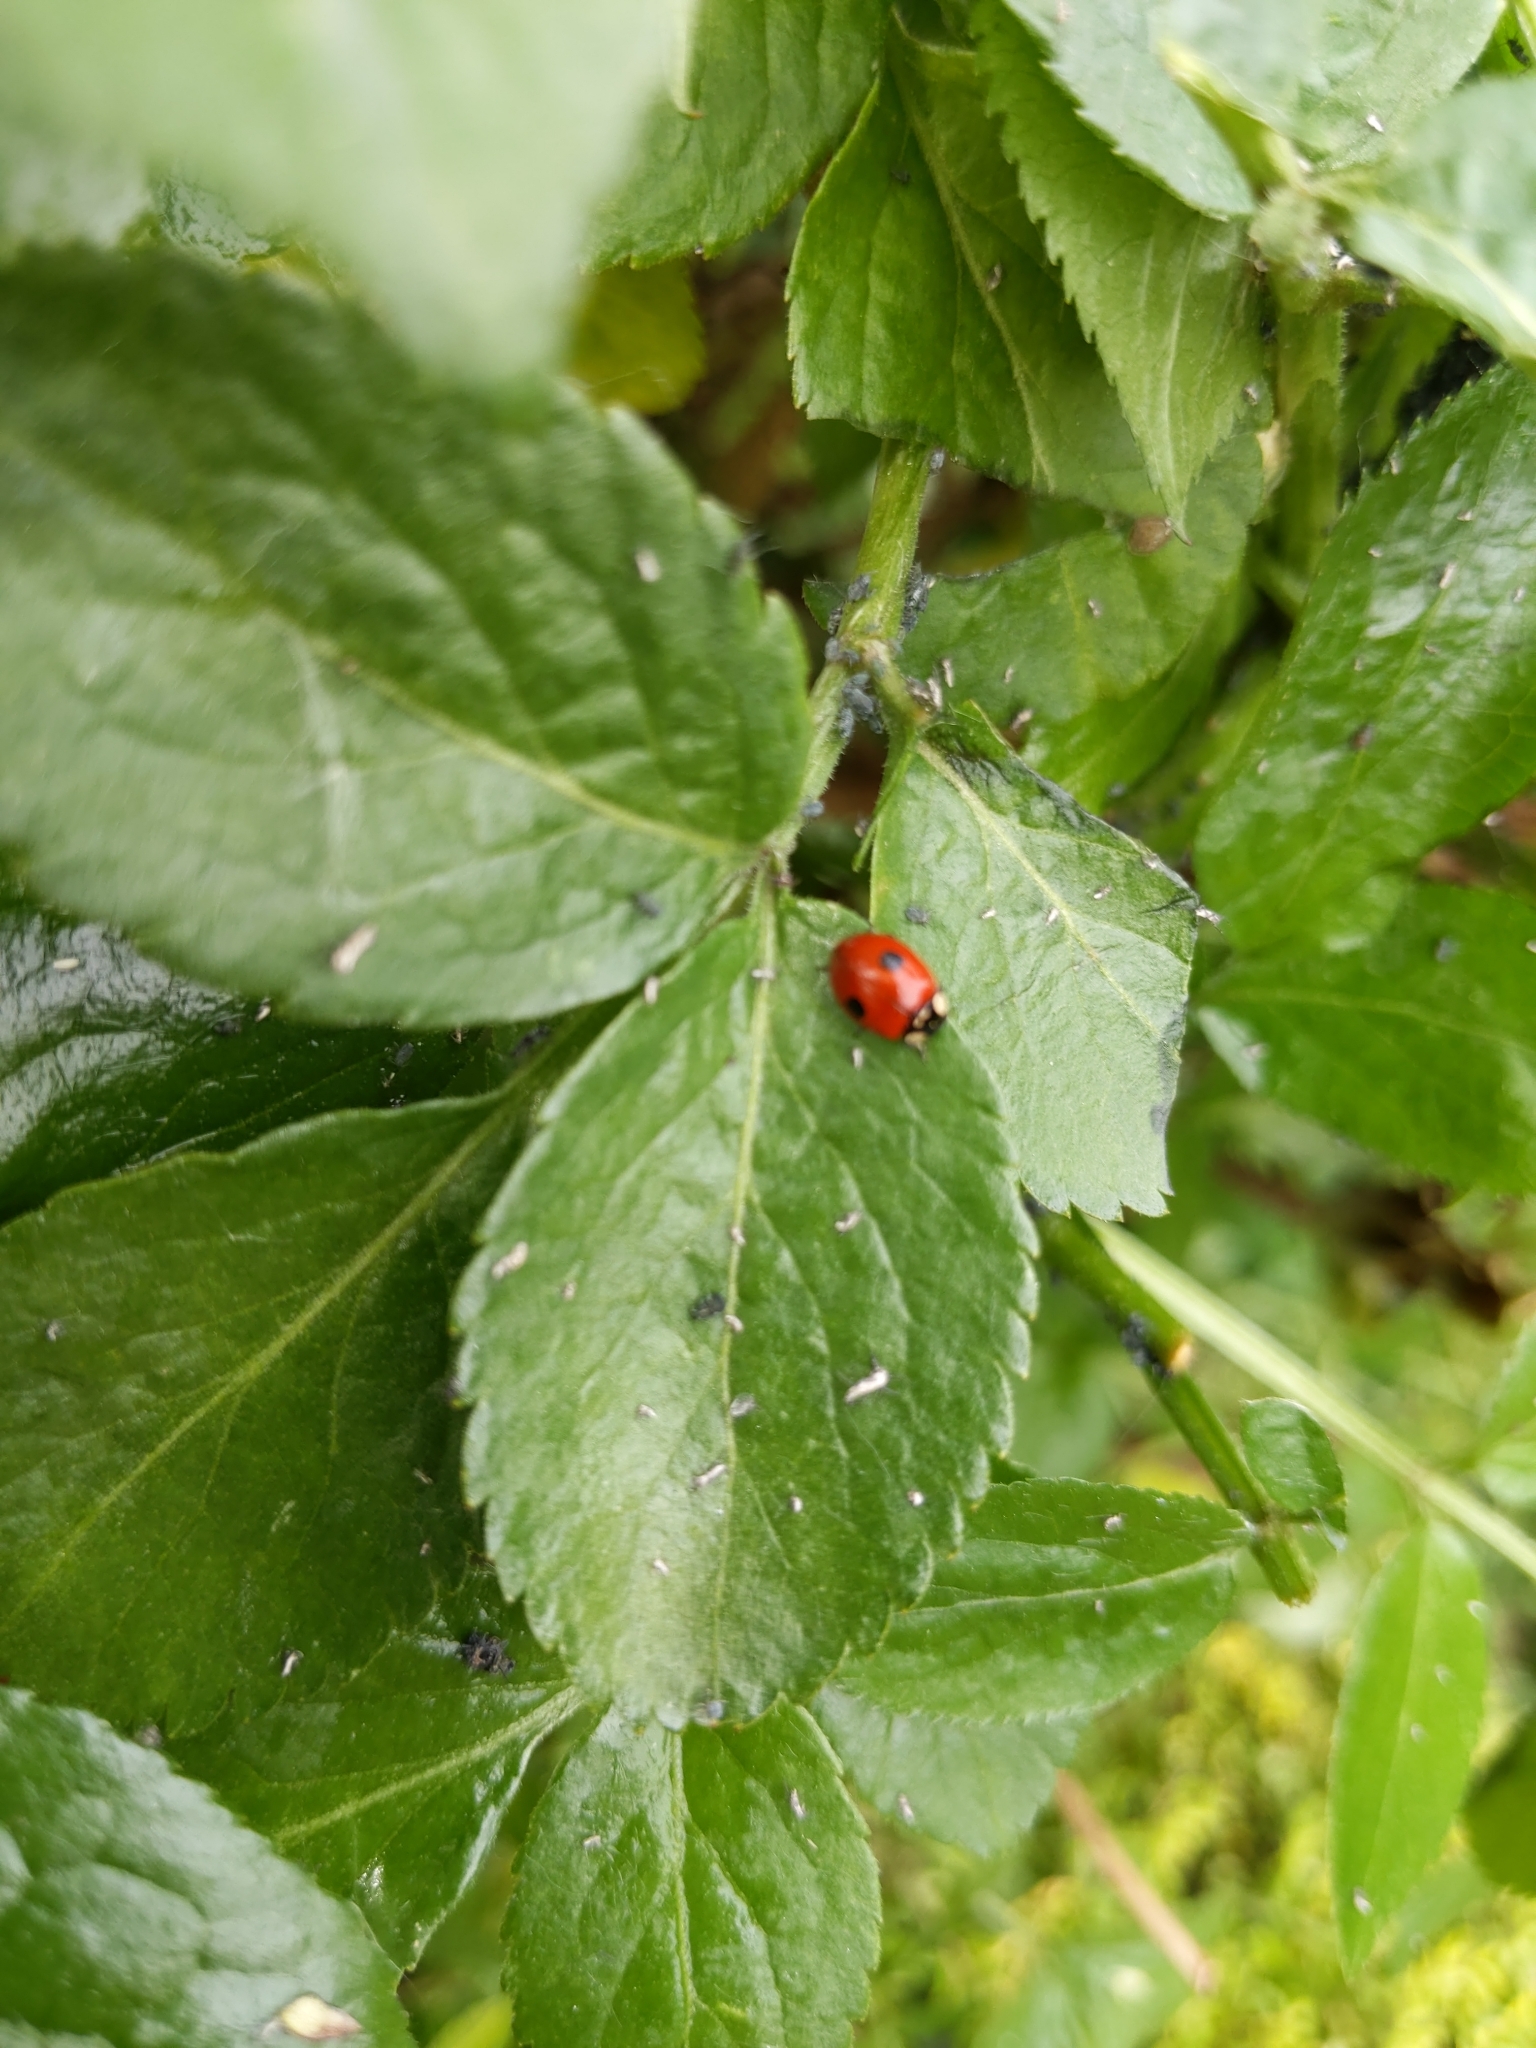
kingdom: Animalia
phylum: Arthropoda
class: Insecta
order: Coleoptera
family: Coccinellidae
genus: Adalia
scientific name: Adalia bipunctata
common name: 2-spot ladybird
